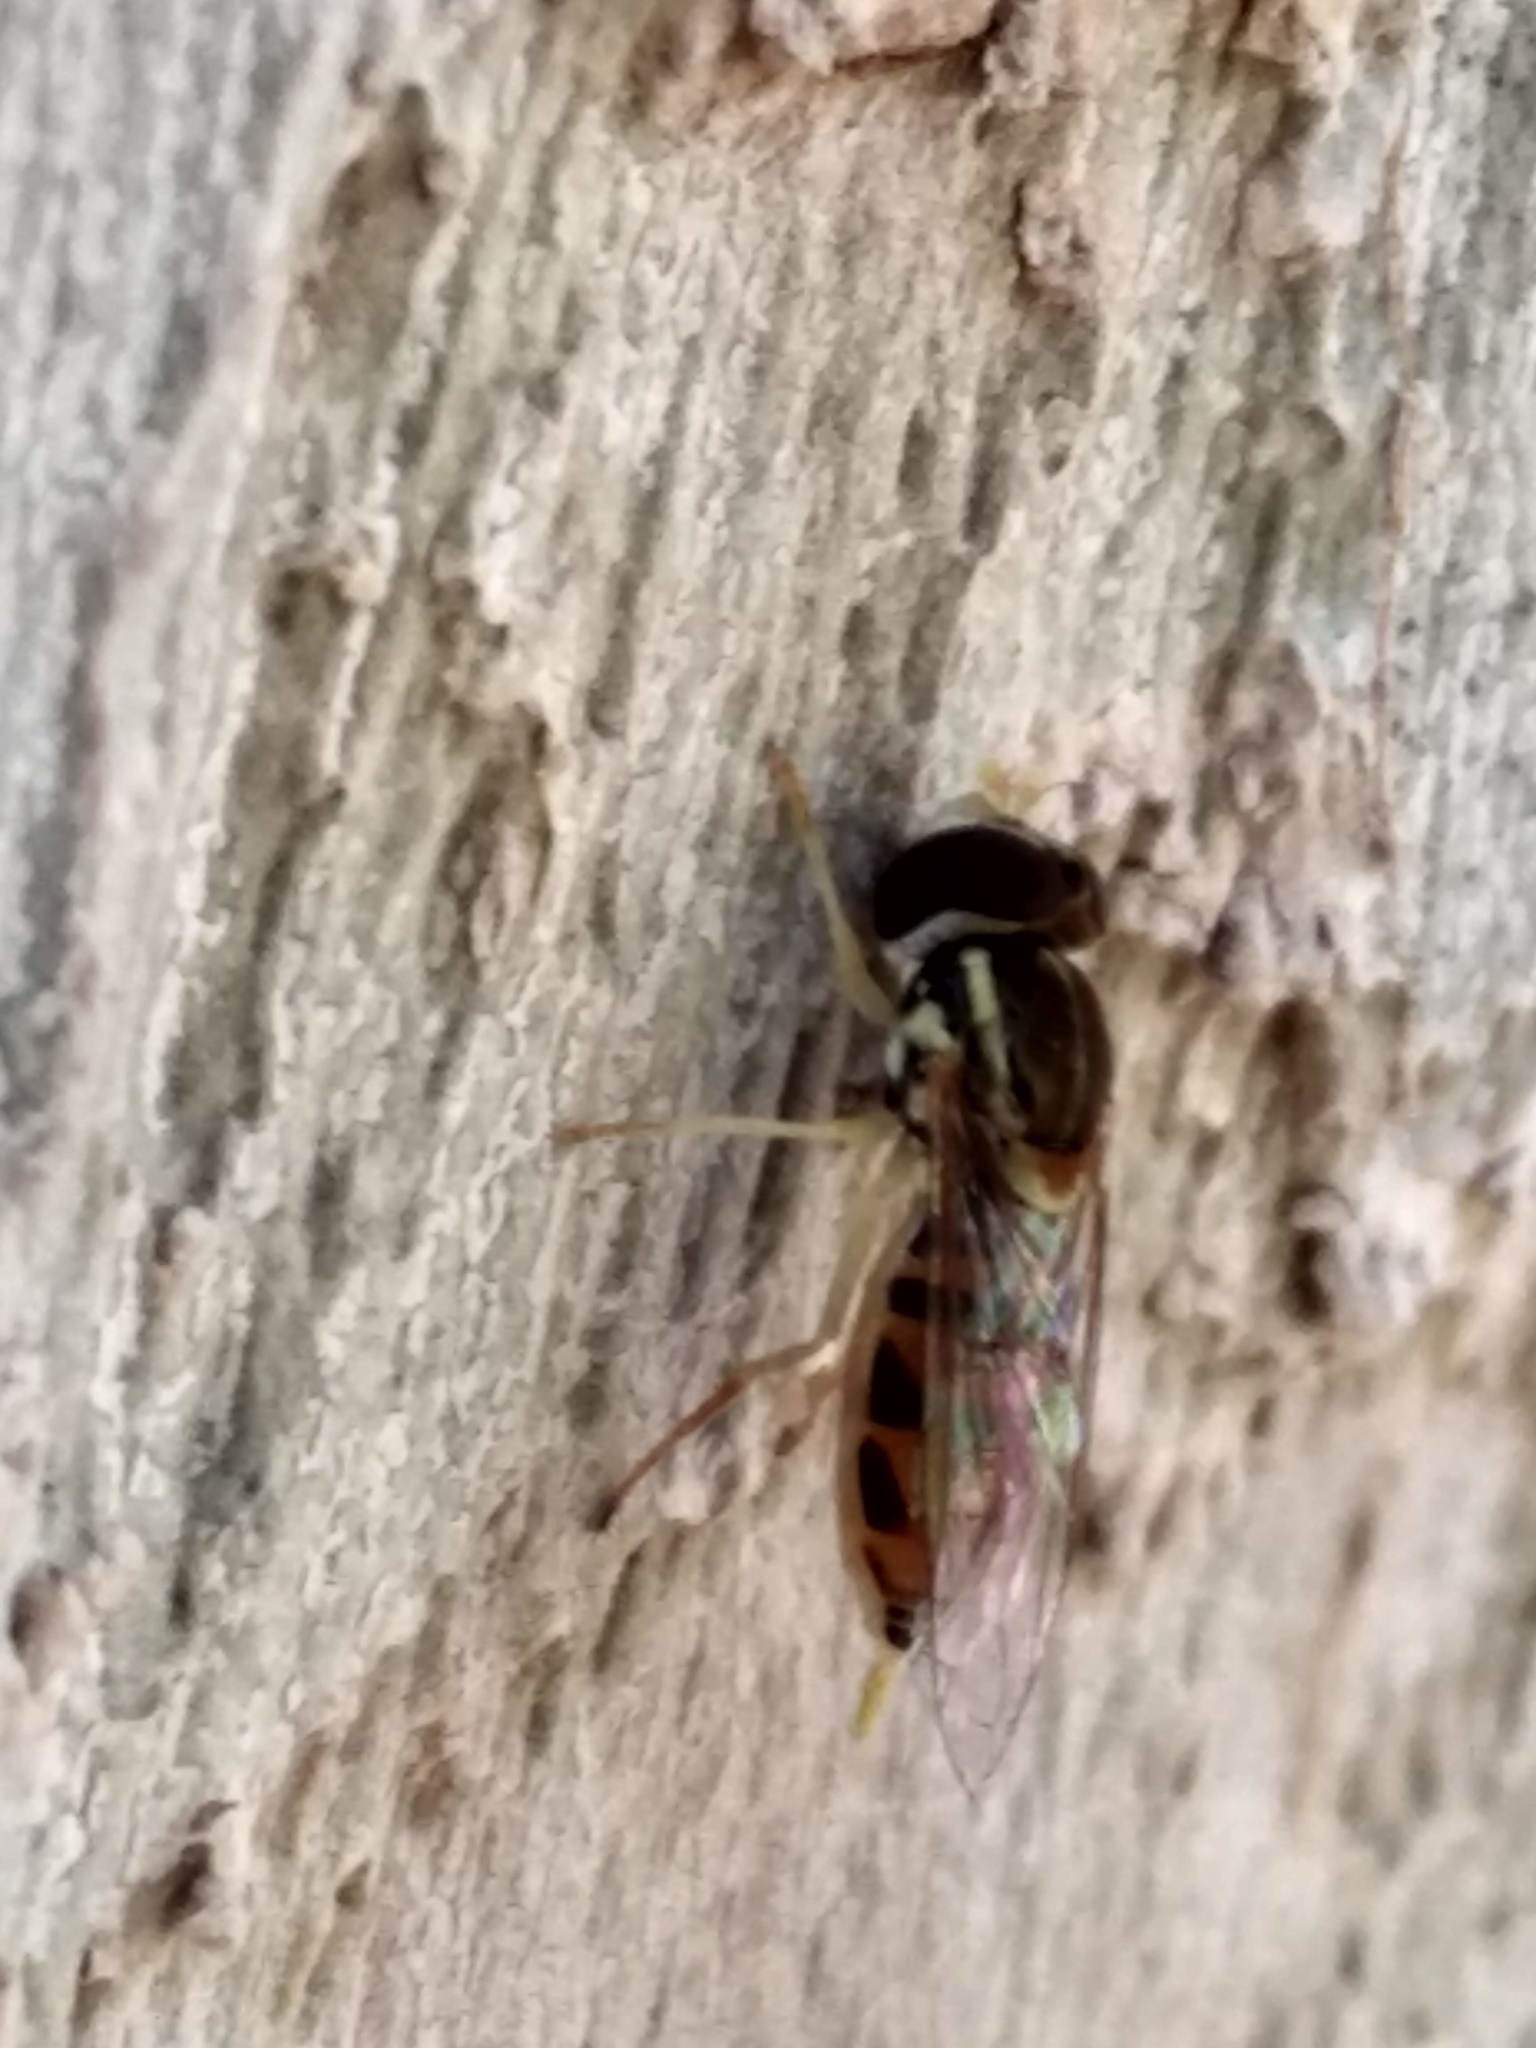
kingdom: Animalia
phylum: Arthropoda
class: Insecta
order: Diptera
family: Syrphidae
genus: Toxomerus
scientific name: Toxomerus marginatus
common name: Syrphid fly
